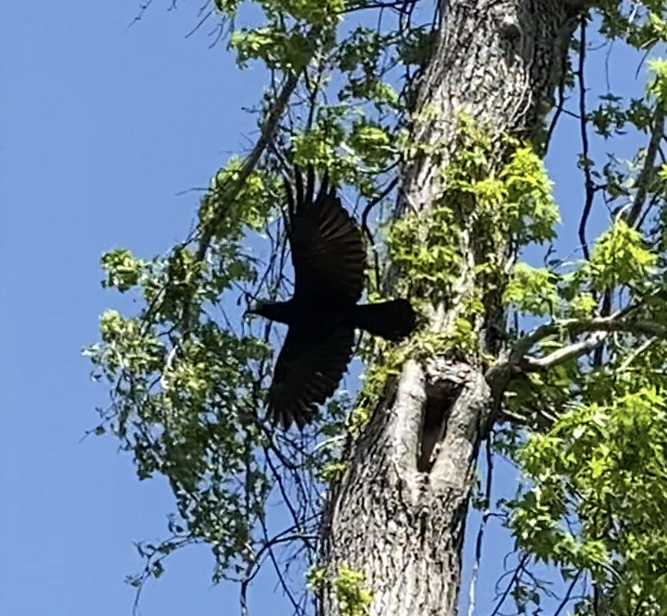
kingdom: Animalia
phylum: Chordata
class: Aves
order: Passeriformes
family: Corvidae
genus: Corvus
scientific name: Corvus corax
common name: Common raven
